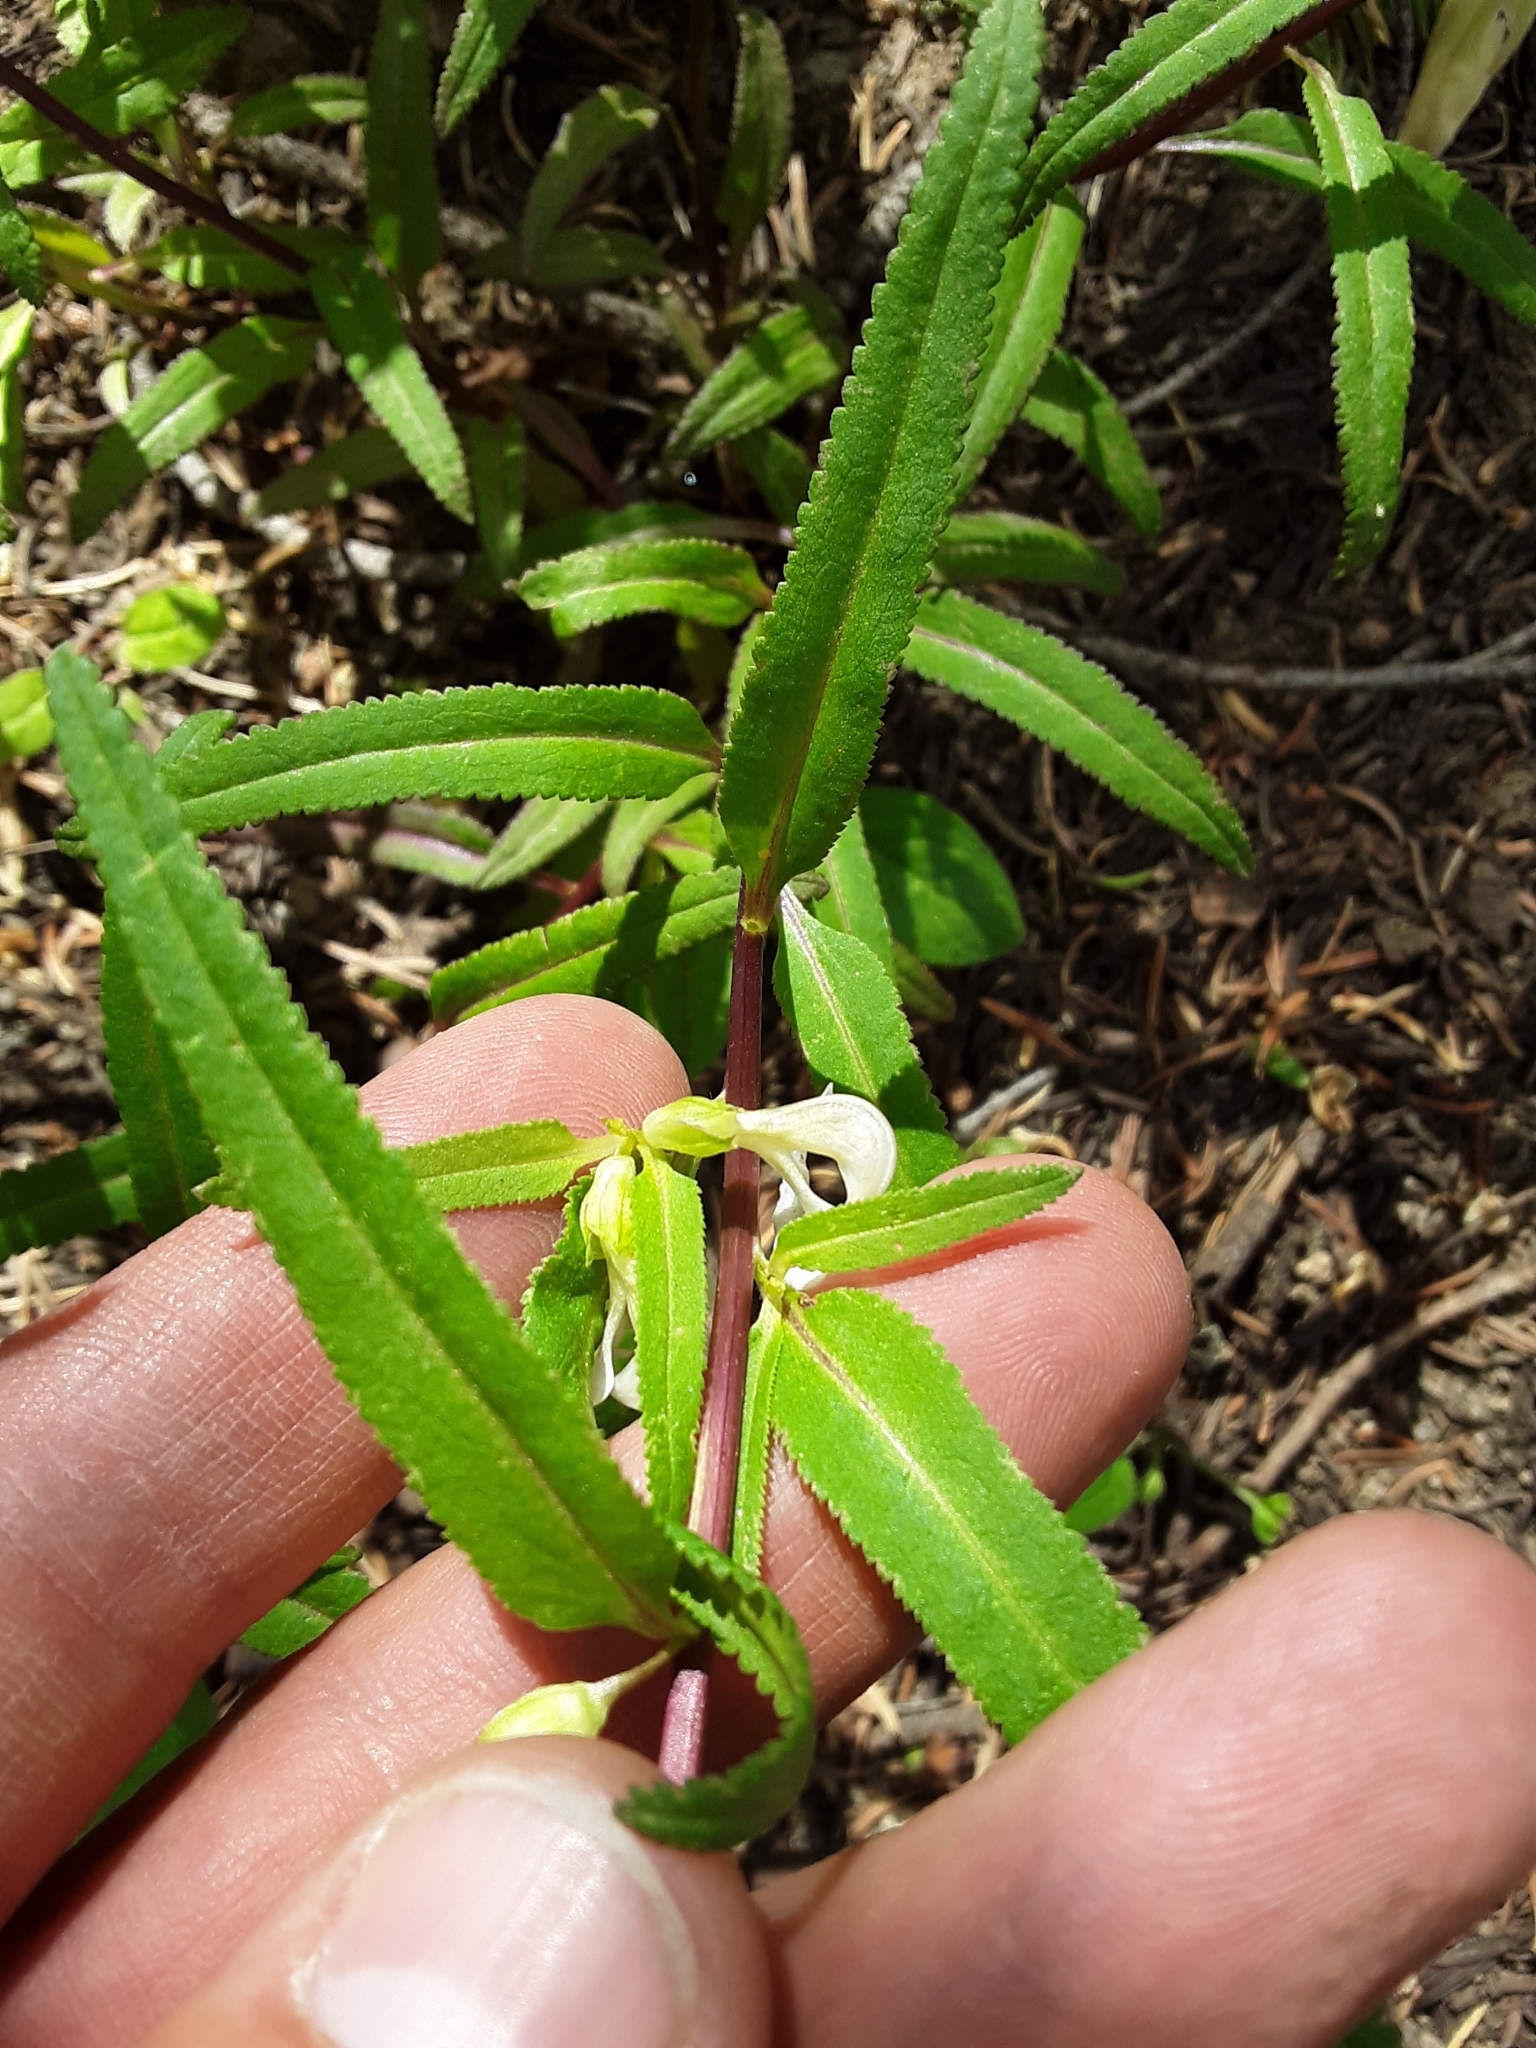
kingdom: Plantae
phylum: Tracheophyta
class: Magnoliopsida
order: Lamiales
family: Orobanchaceae
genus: Pedicularis
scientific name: Pedicularis racemosa
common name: Leafy lousewort
